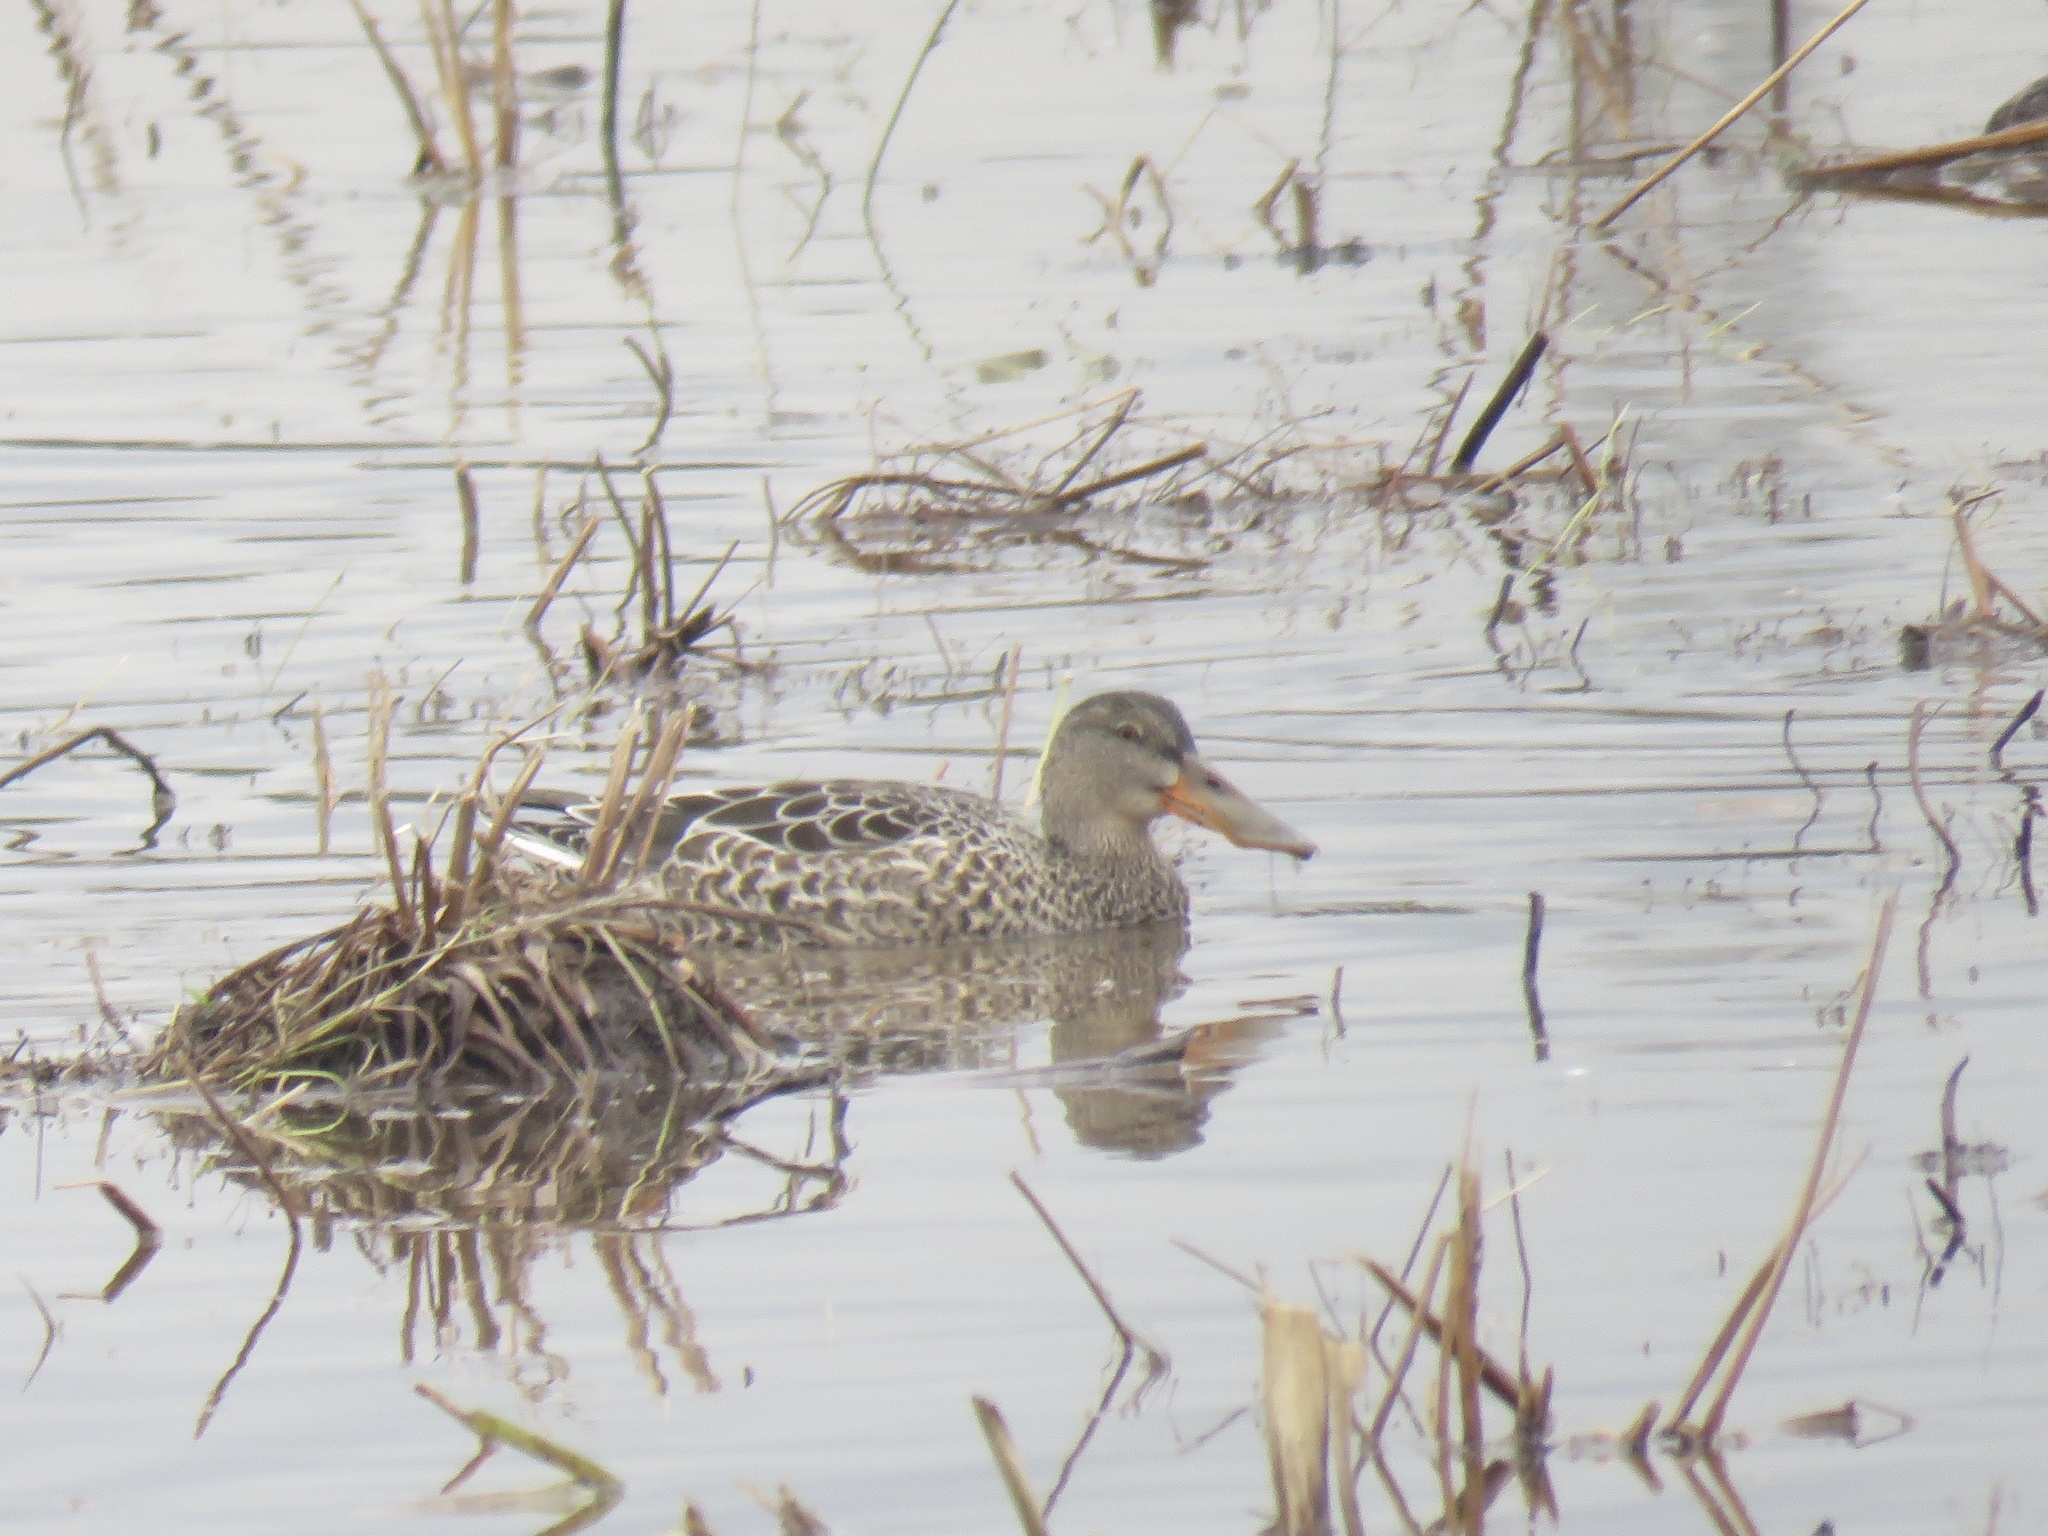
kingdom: Animalia
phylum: Chordata
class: Aves
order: Anseriformes
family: Anatidae
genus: Spatula
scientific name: Spatula clypeata
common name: Northern shoveler
